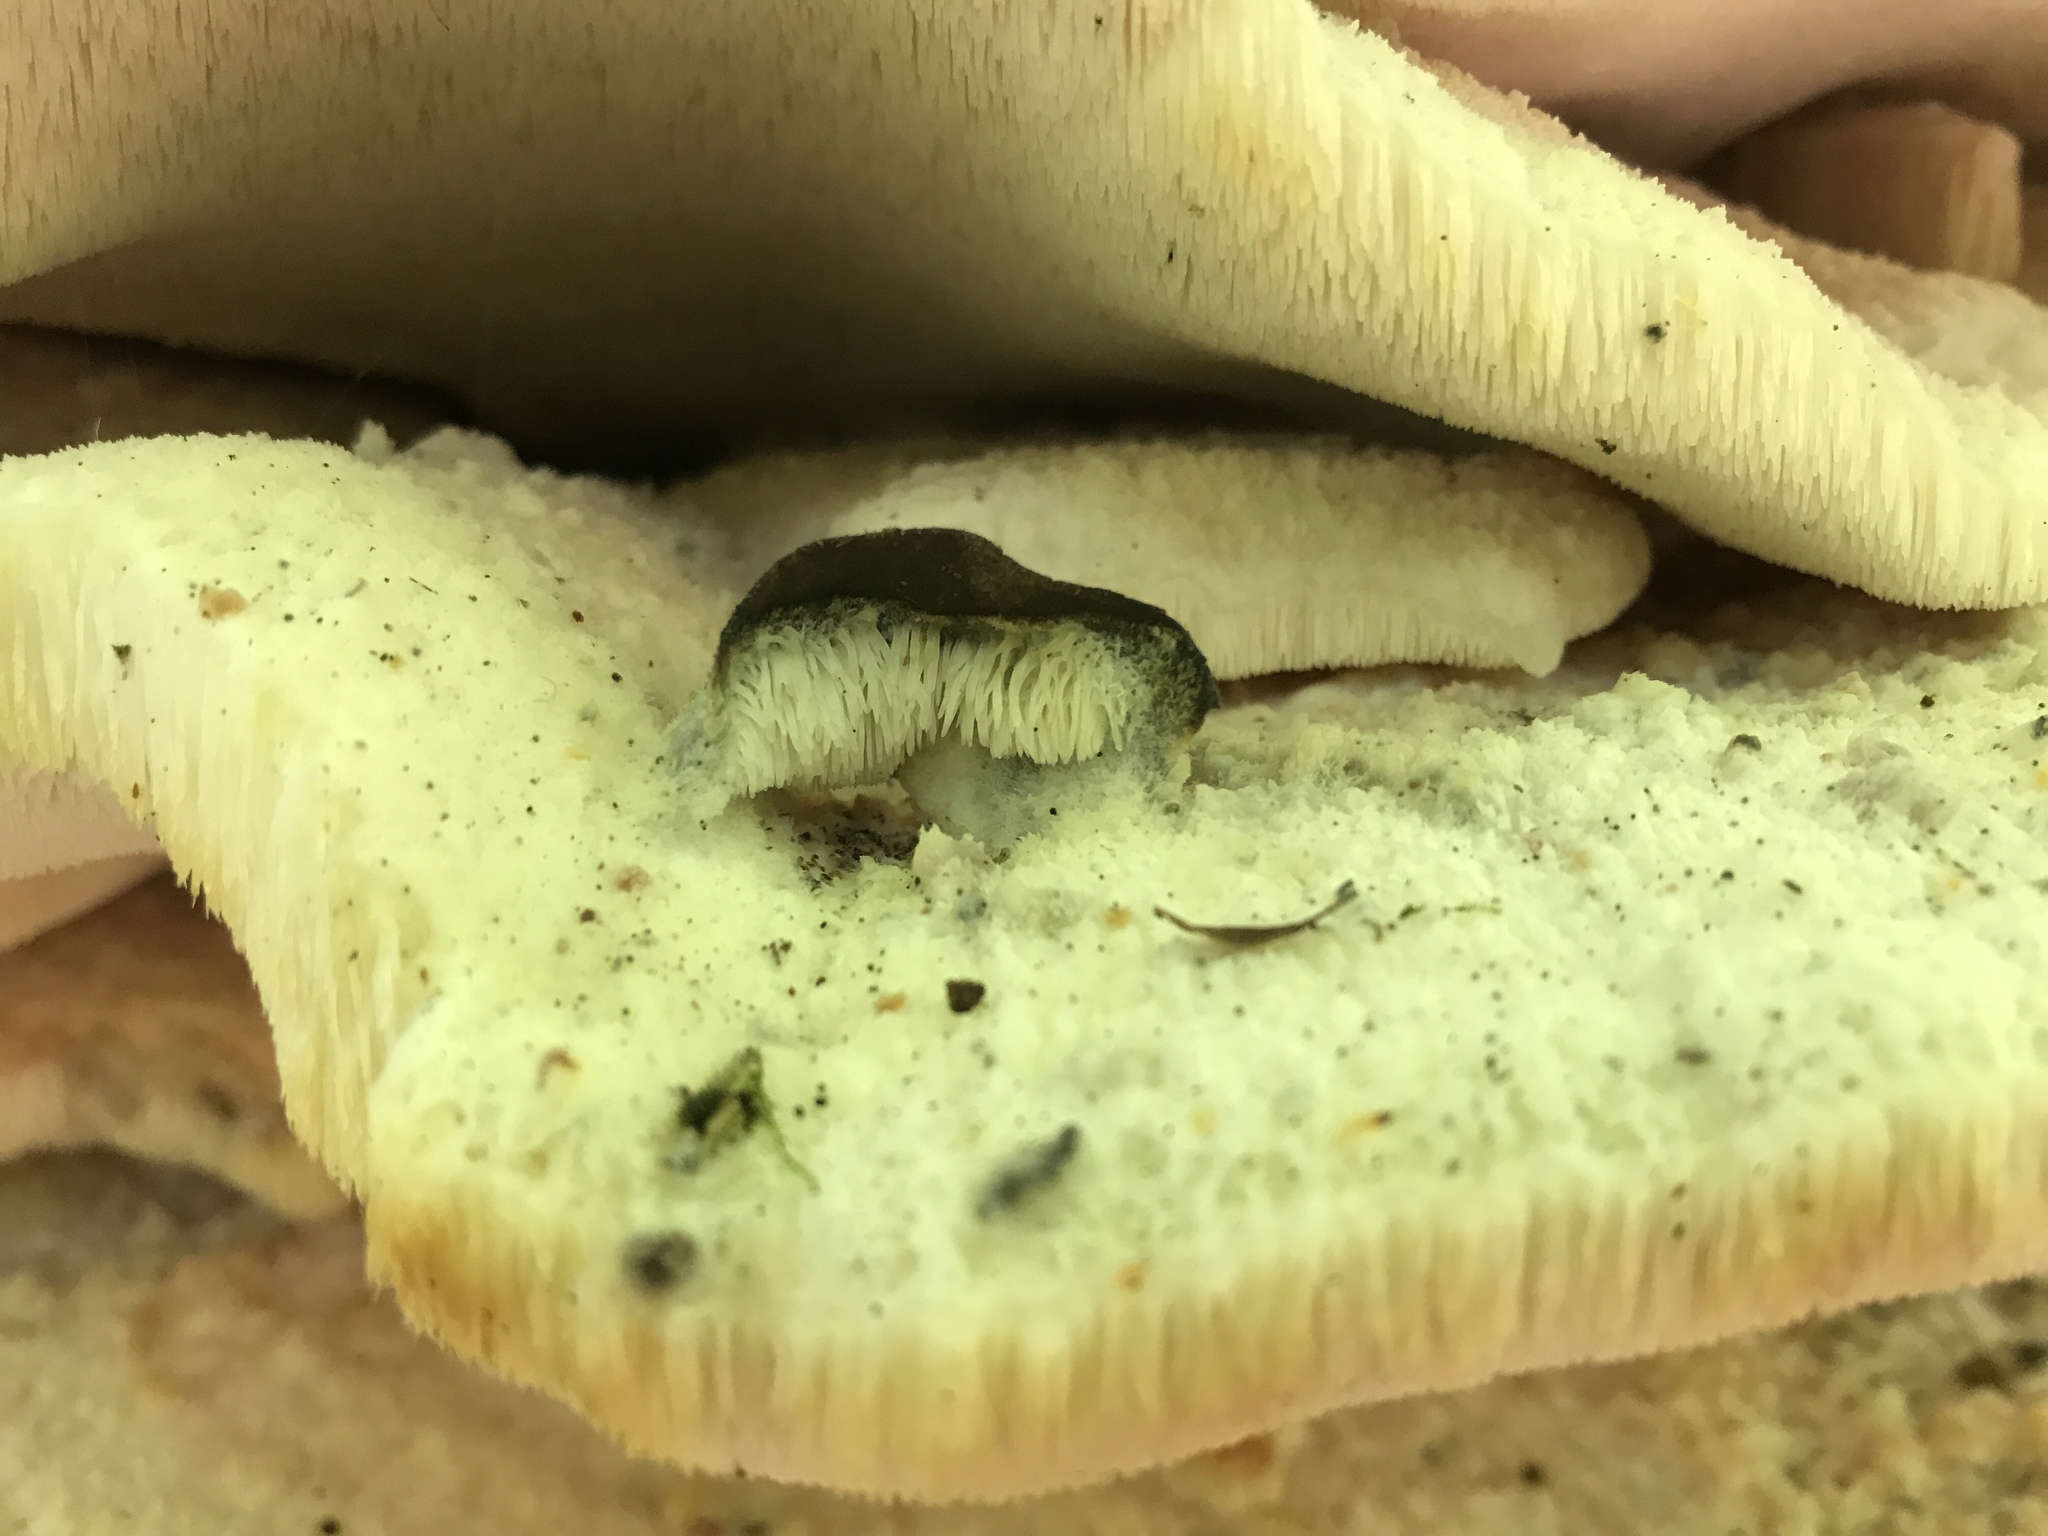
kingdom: Fungi
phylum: Basidiomycota
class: Agaricomycetes
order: Polyporales
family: Meruliaceae
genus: Climacodon
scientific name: Climacodon septentrionalis
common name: Northern tooth
